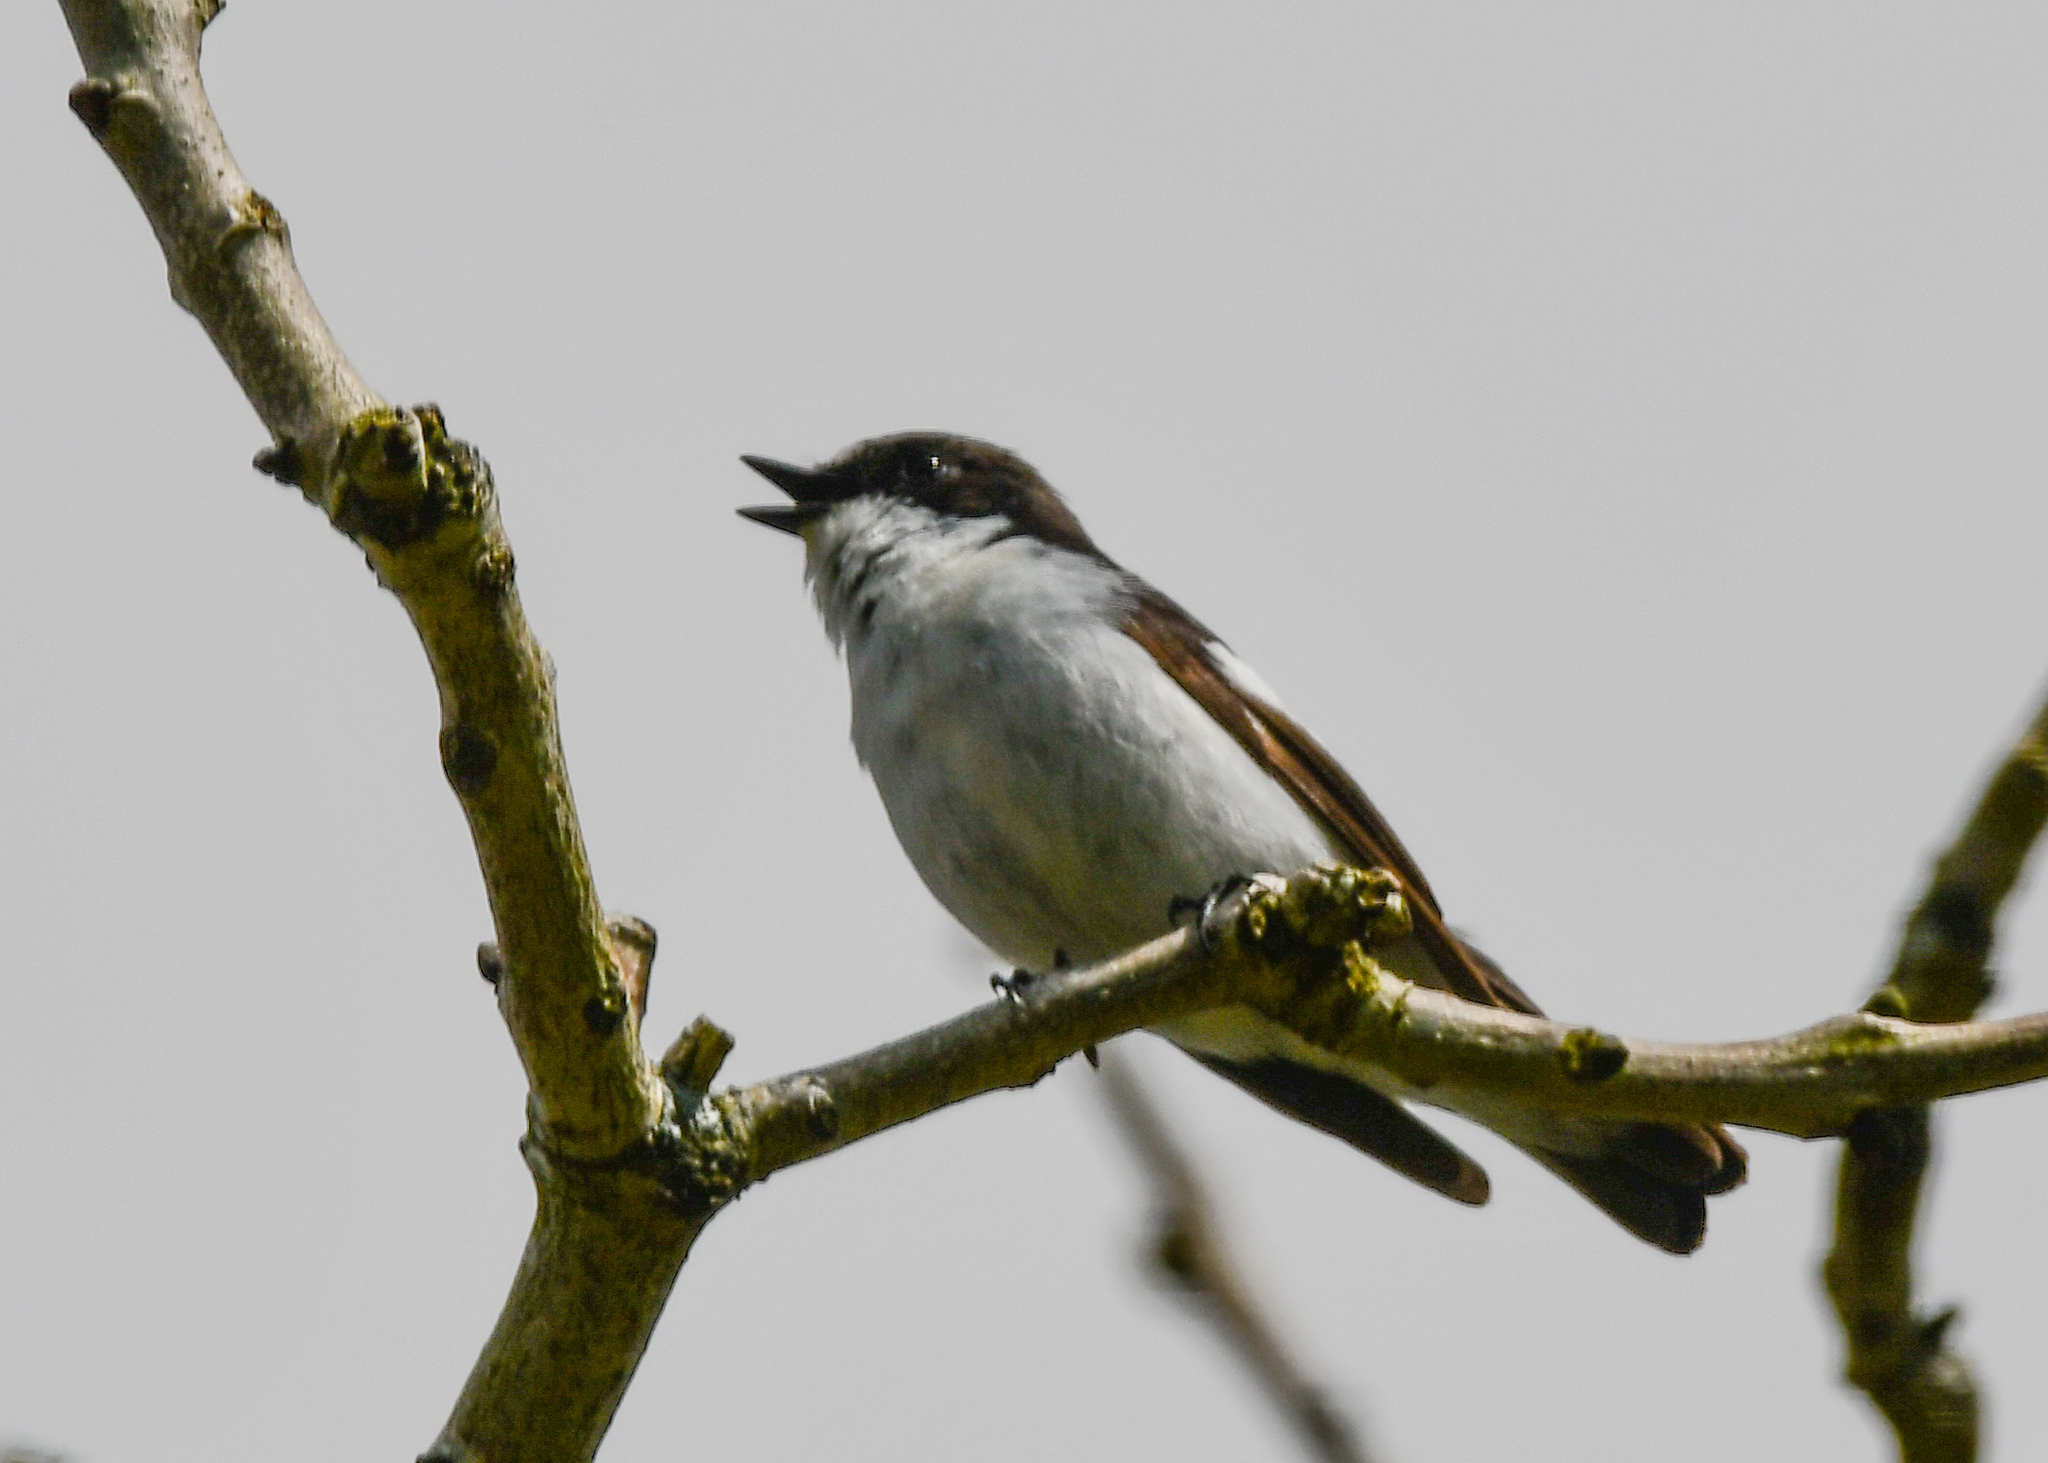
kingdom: Animalia
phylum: Chordata
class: Aves
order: Passeriformes
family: Muscicapidae
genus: Ficedula
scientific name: Ficedula hypoleuca
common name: European pied flycatcher
